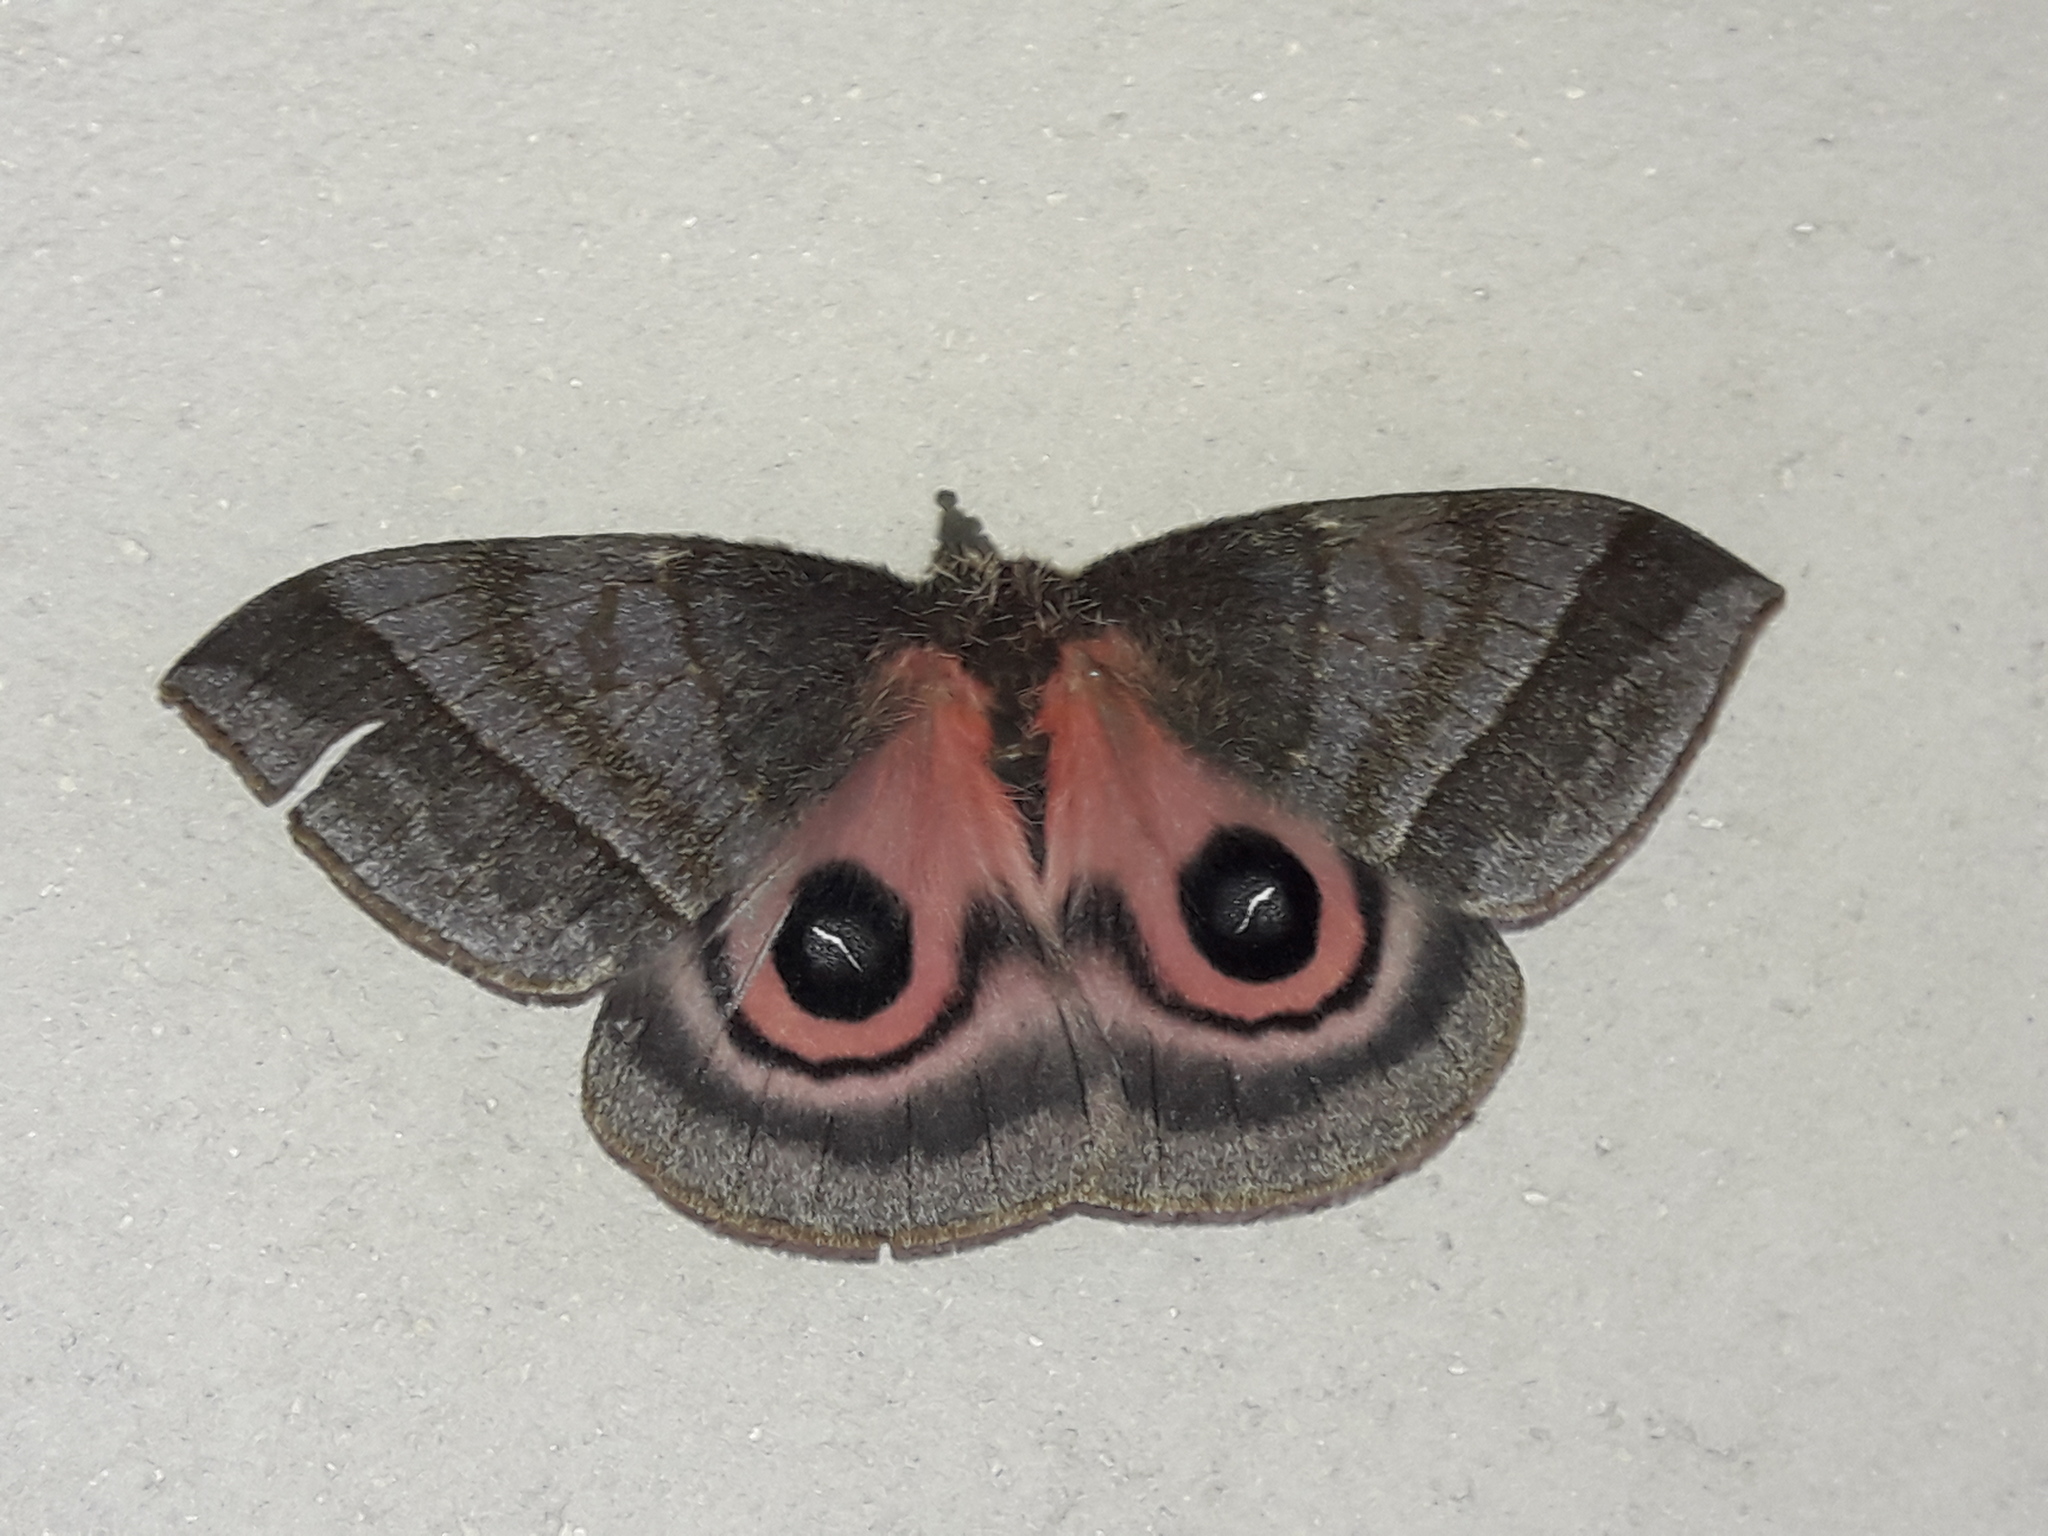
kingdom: Animalia
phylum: Arthropoda
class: Insecta
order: Lepidoptera
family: Saturniidae
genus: Automeris
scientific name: Automeris pallidior
